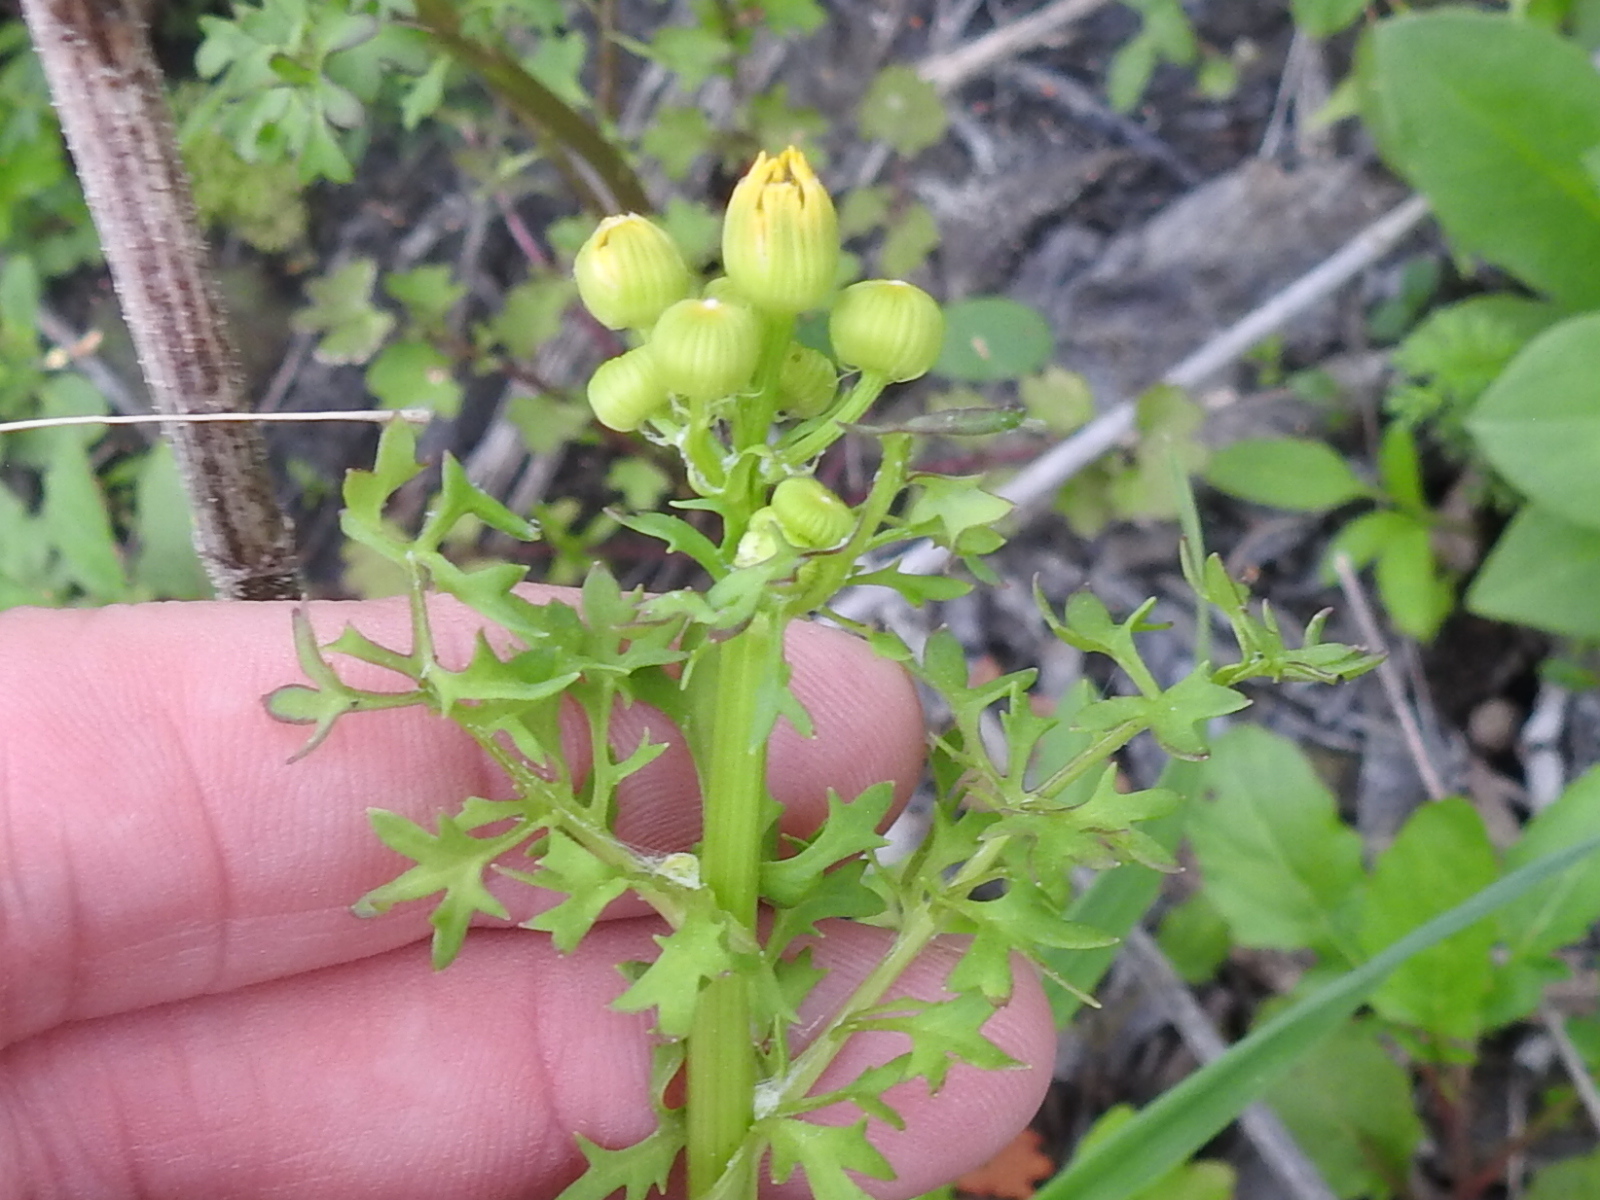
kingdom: Plantae
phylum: Tracheophyta
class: Magnoliopsida
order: Asterales
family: Asteraceae
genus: Packera
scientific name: Packera tampicana
